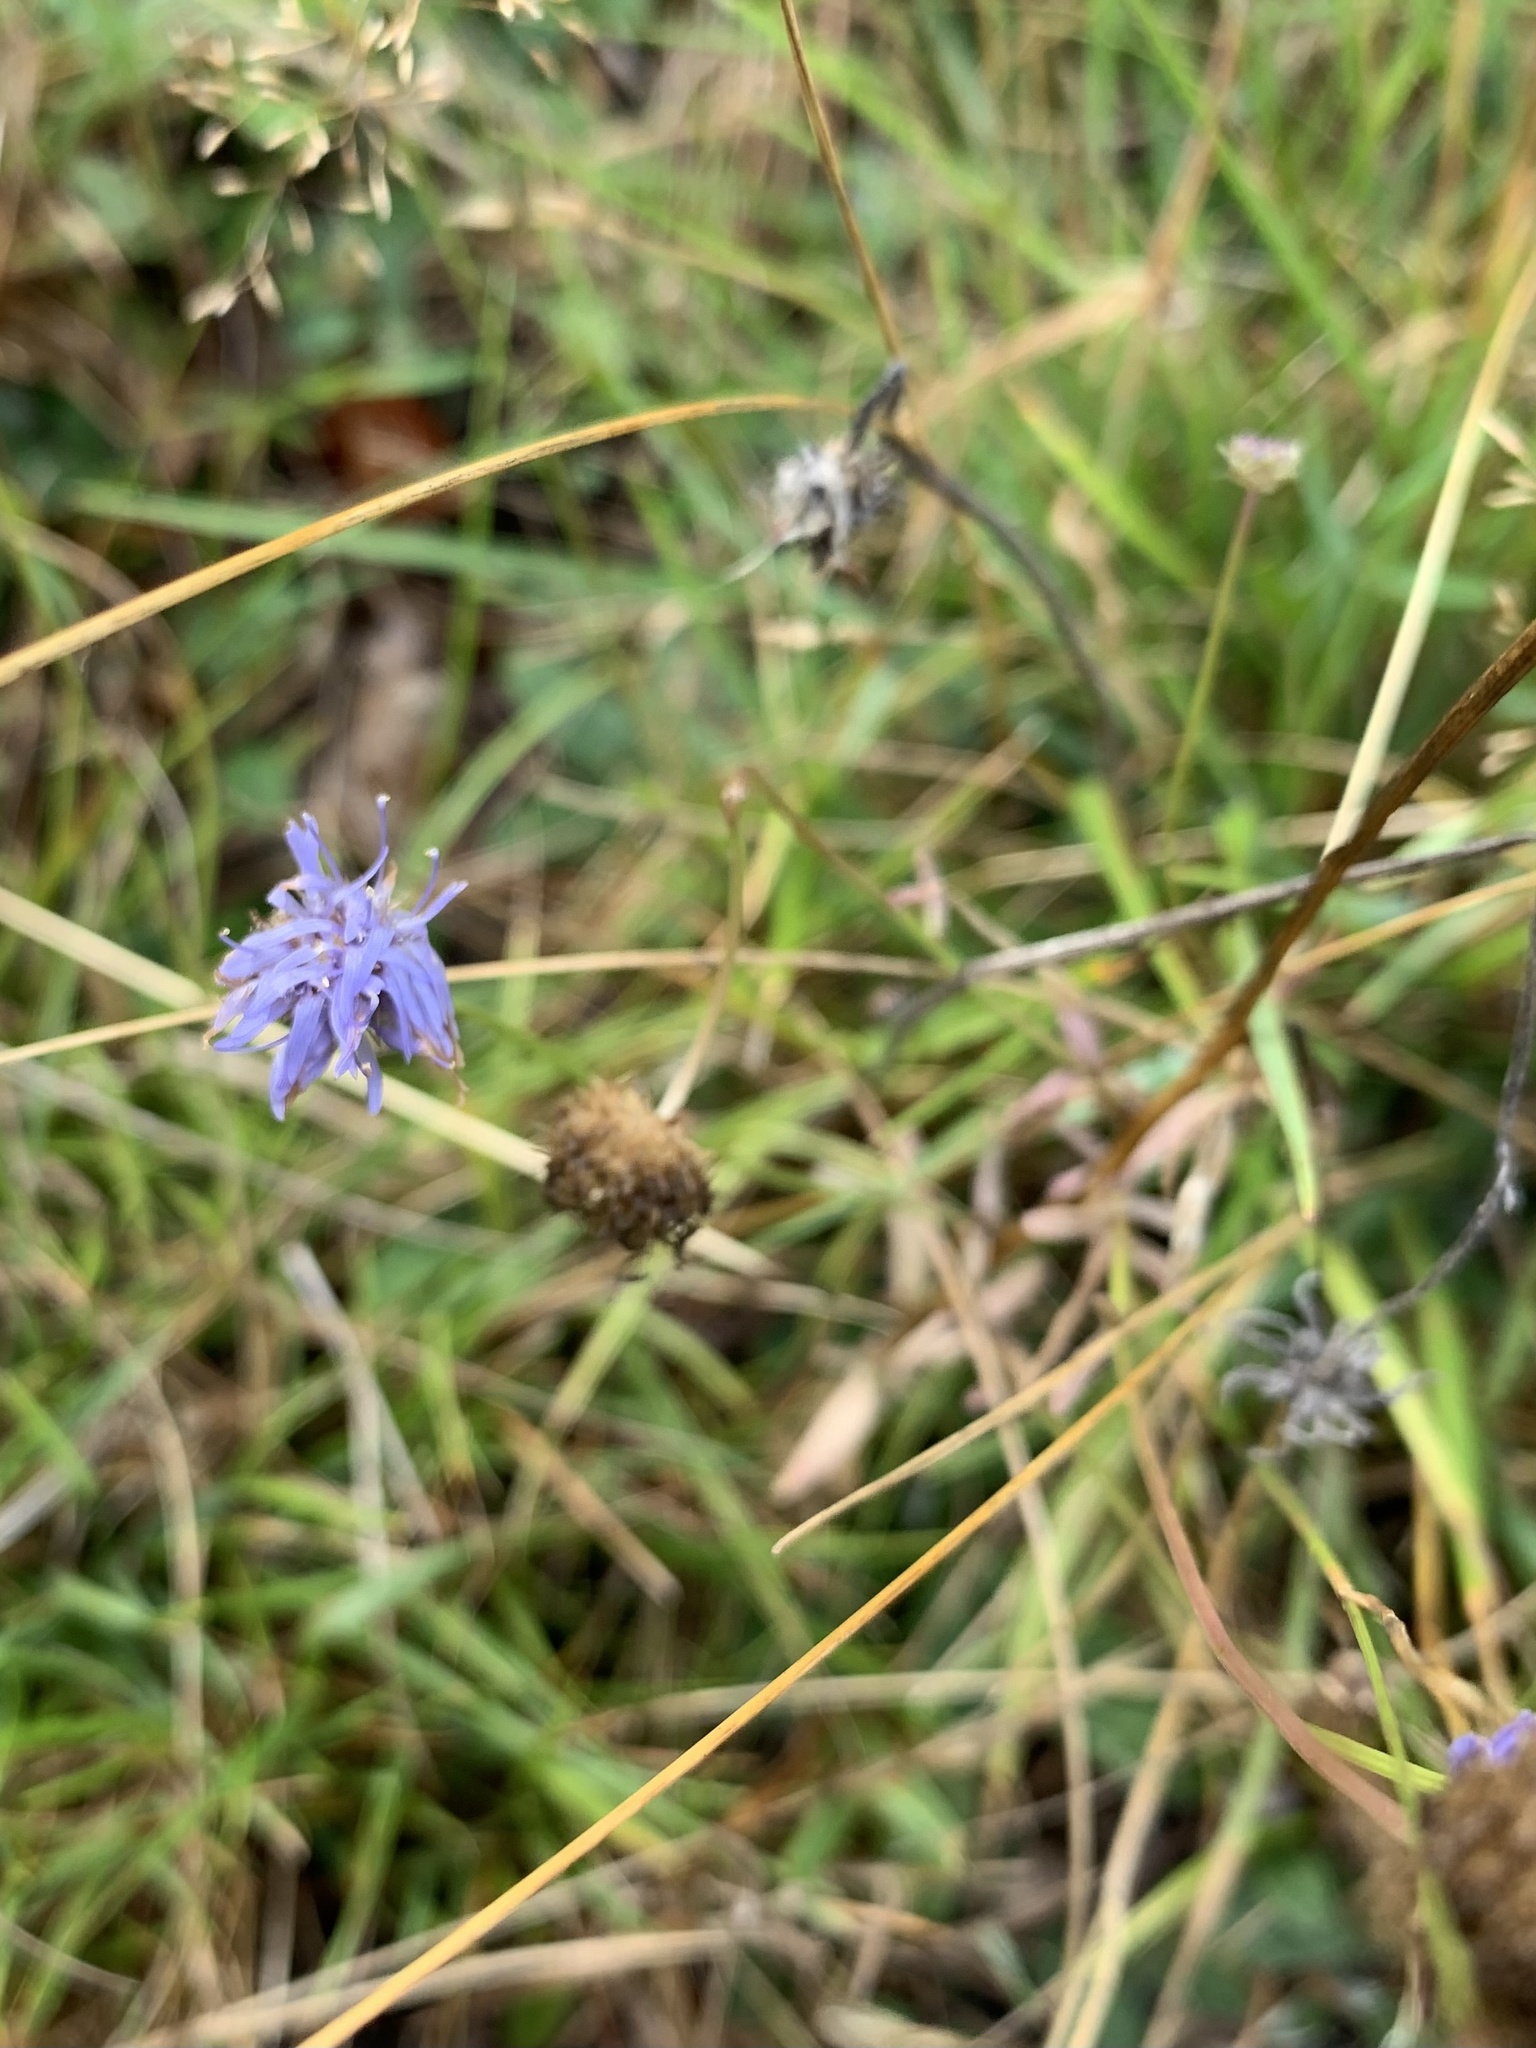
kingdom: Plantae
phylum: Tracheophyta
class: Magnoliopsida
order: Asterales
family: Campanulaceae
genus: Jasione
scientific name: Jasione montana
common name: Sheep's-bit
